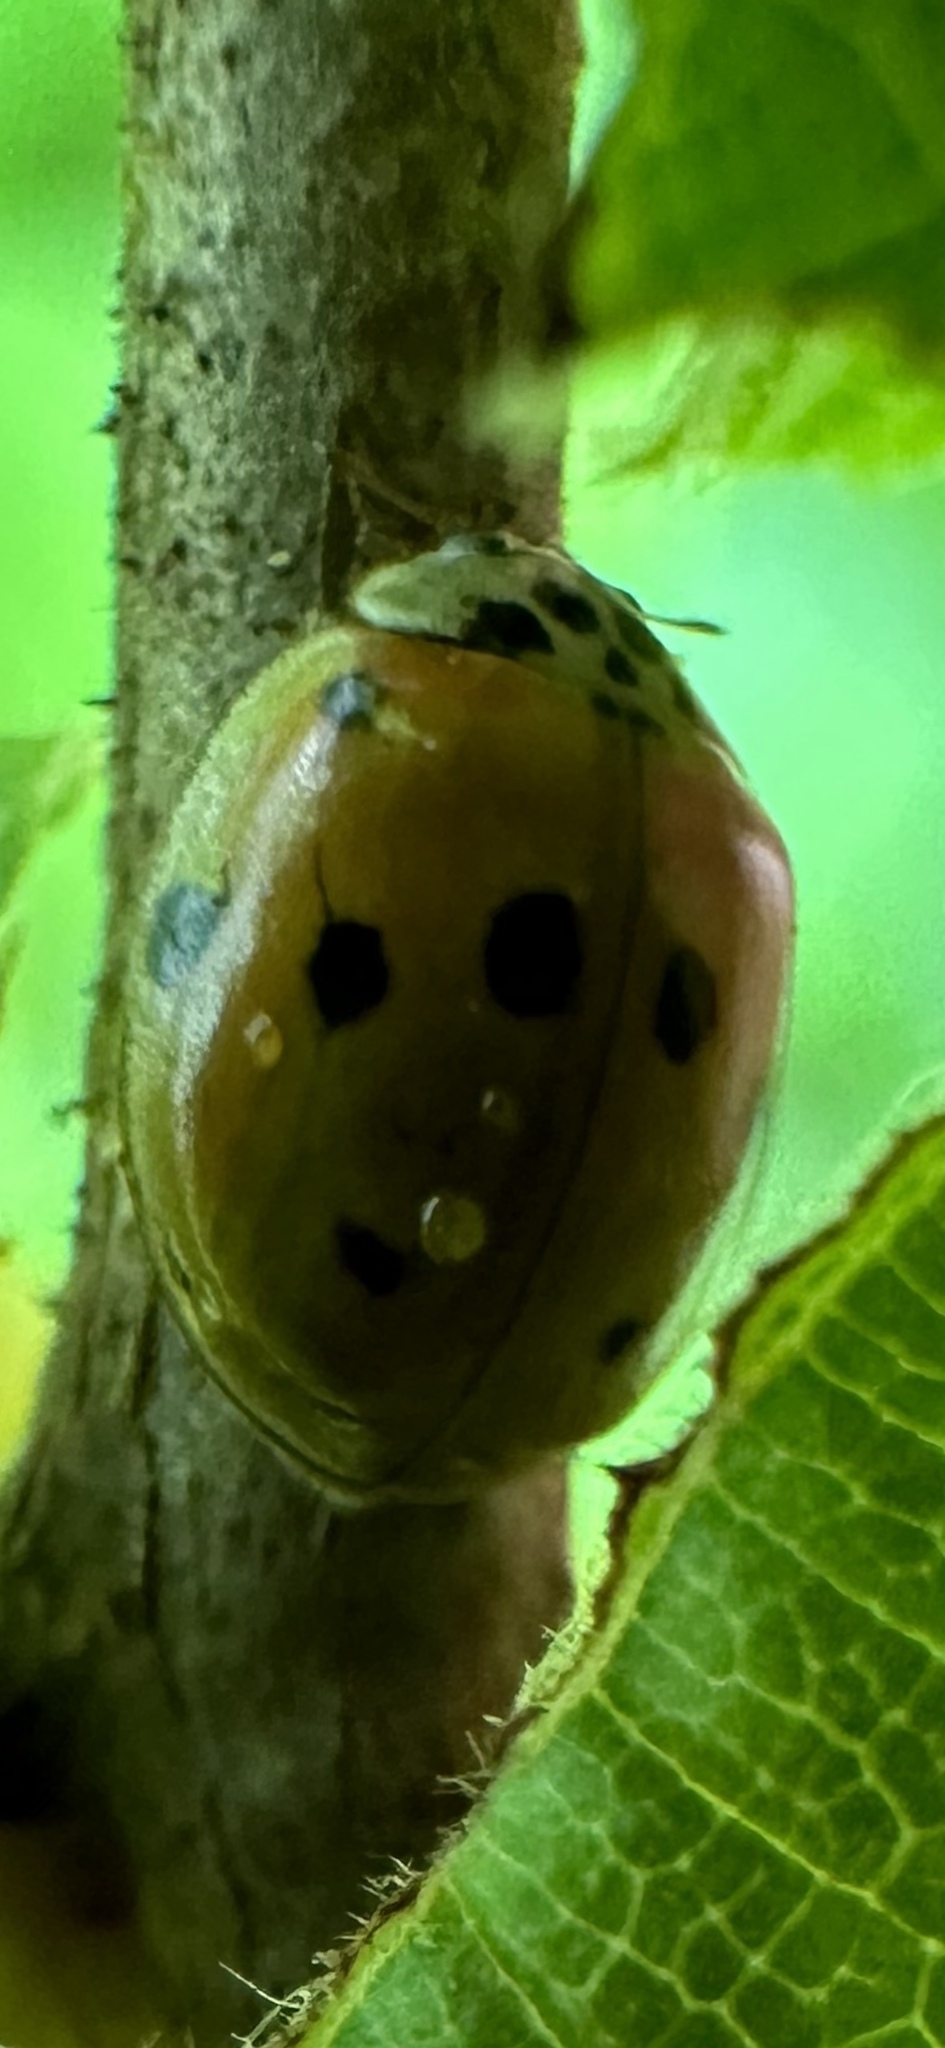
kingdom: Animalia
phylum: Arthropoda
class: Insecta
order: Coleoptera
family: Coccinellidae
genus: Adalia
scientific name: Adalia decempunctata
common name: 10-spot ladybird
